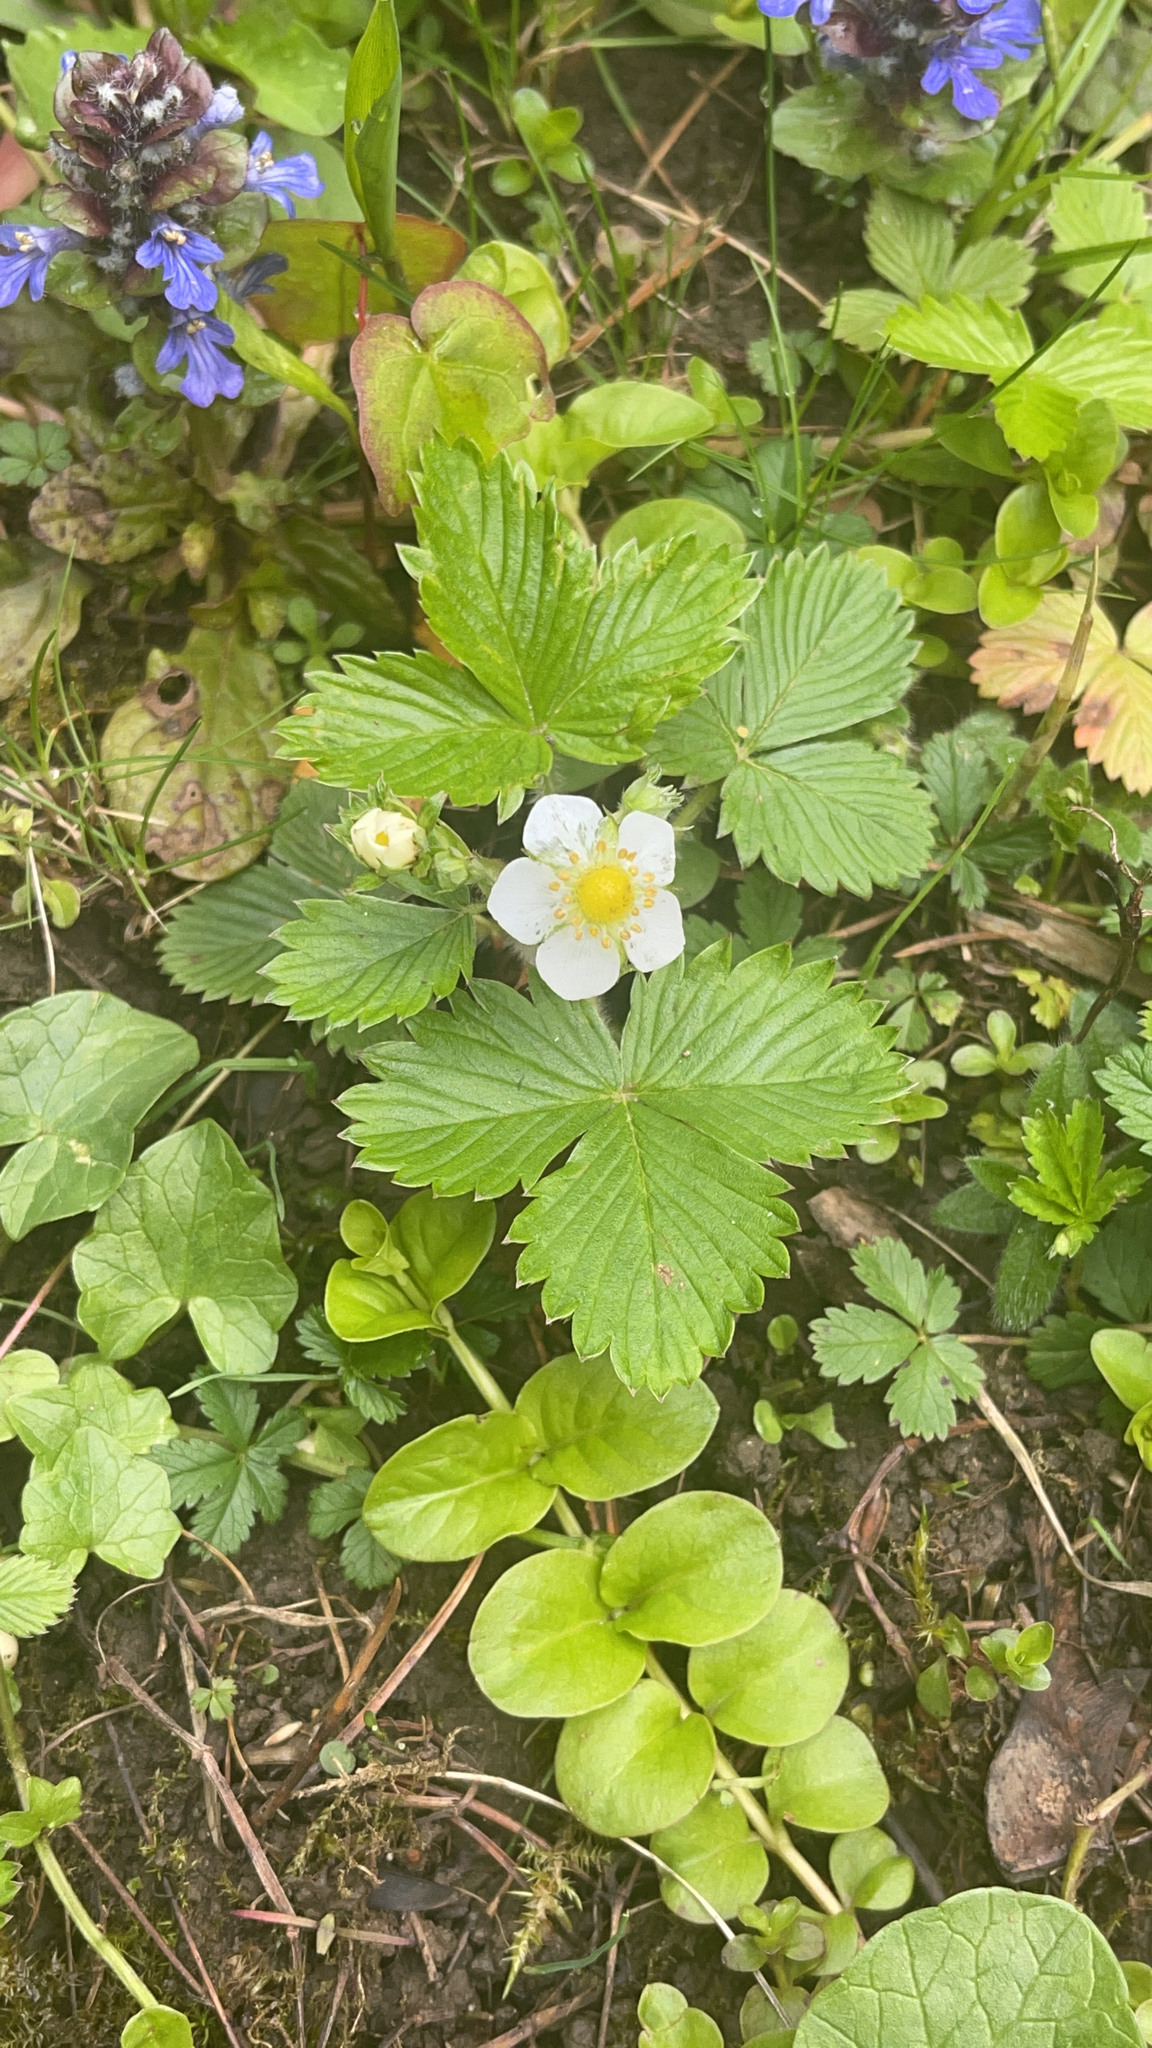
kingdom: Plantae
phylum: Tracheophyta
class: Magnoliopsida
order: Rosales
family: Rosaceae
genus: Fragaria
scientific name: Fragaria vesca
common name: Wild strawberry
